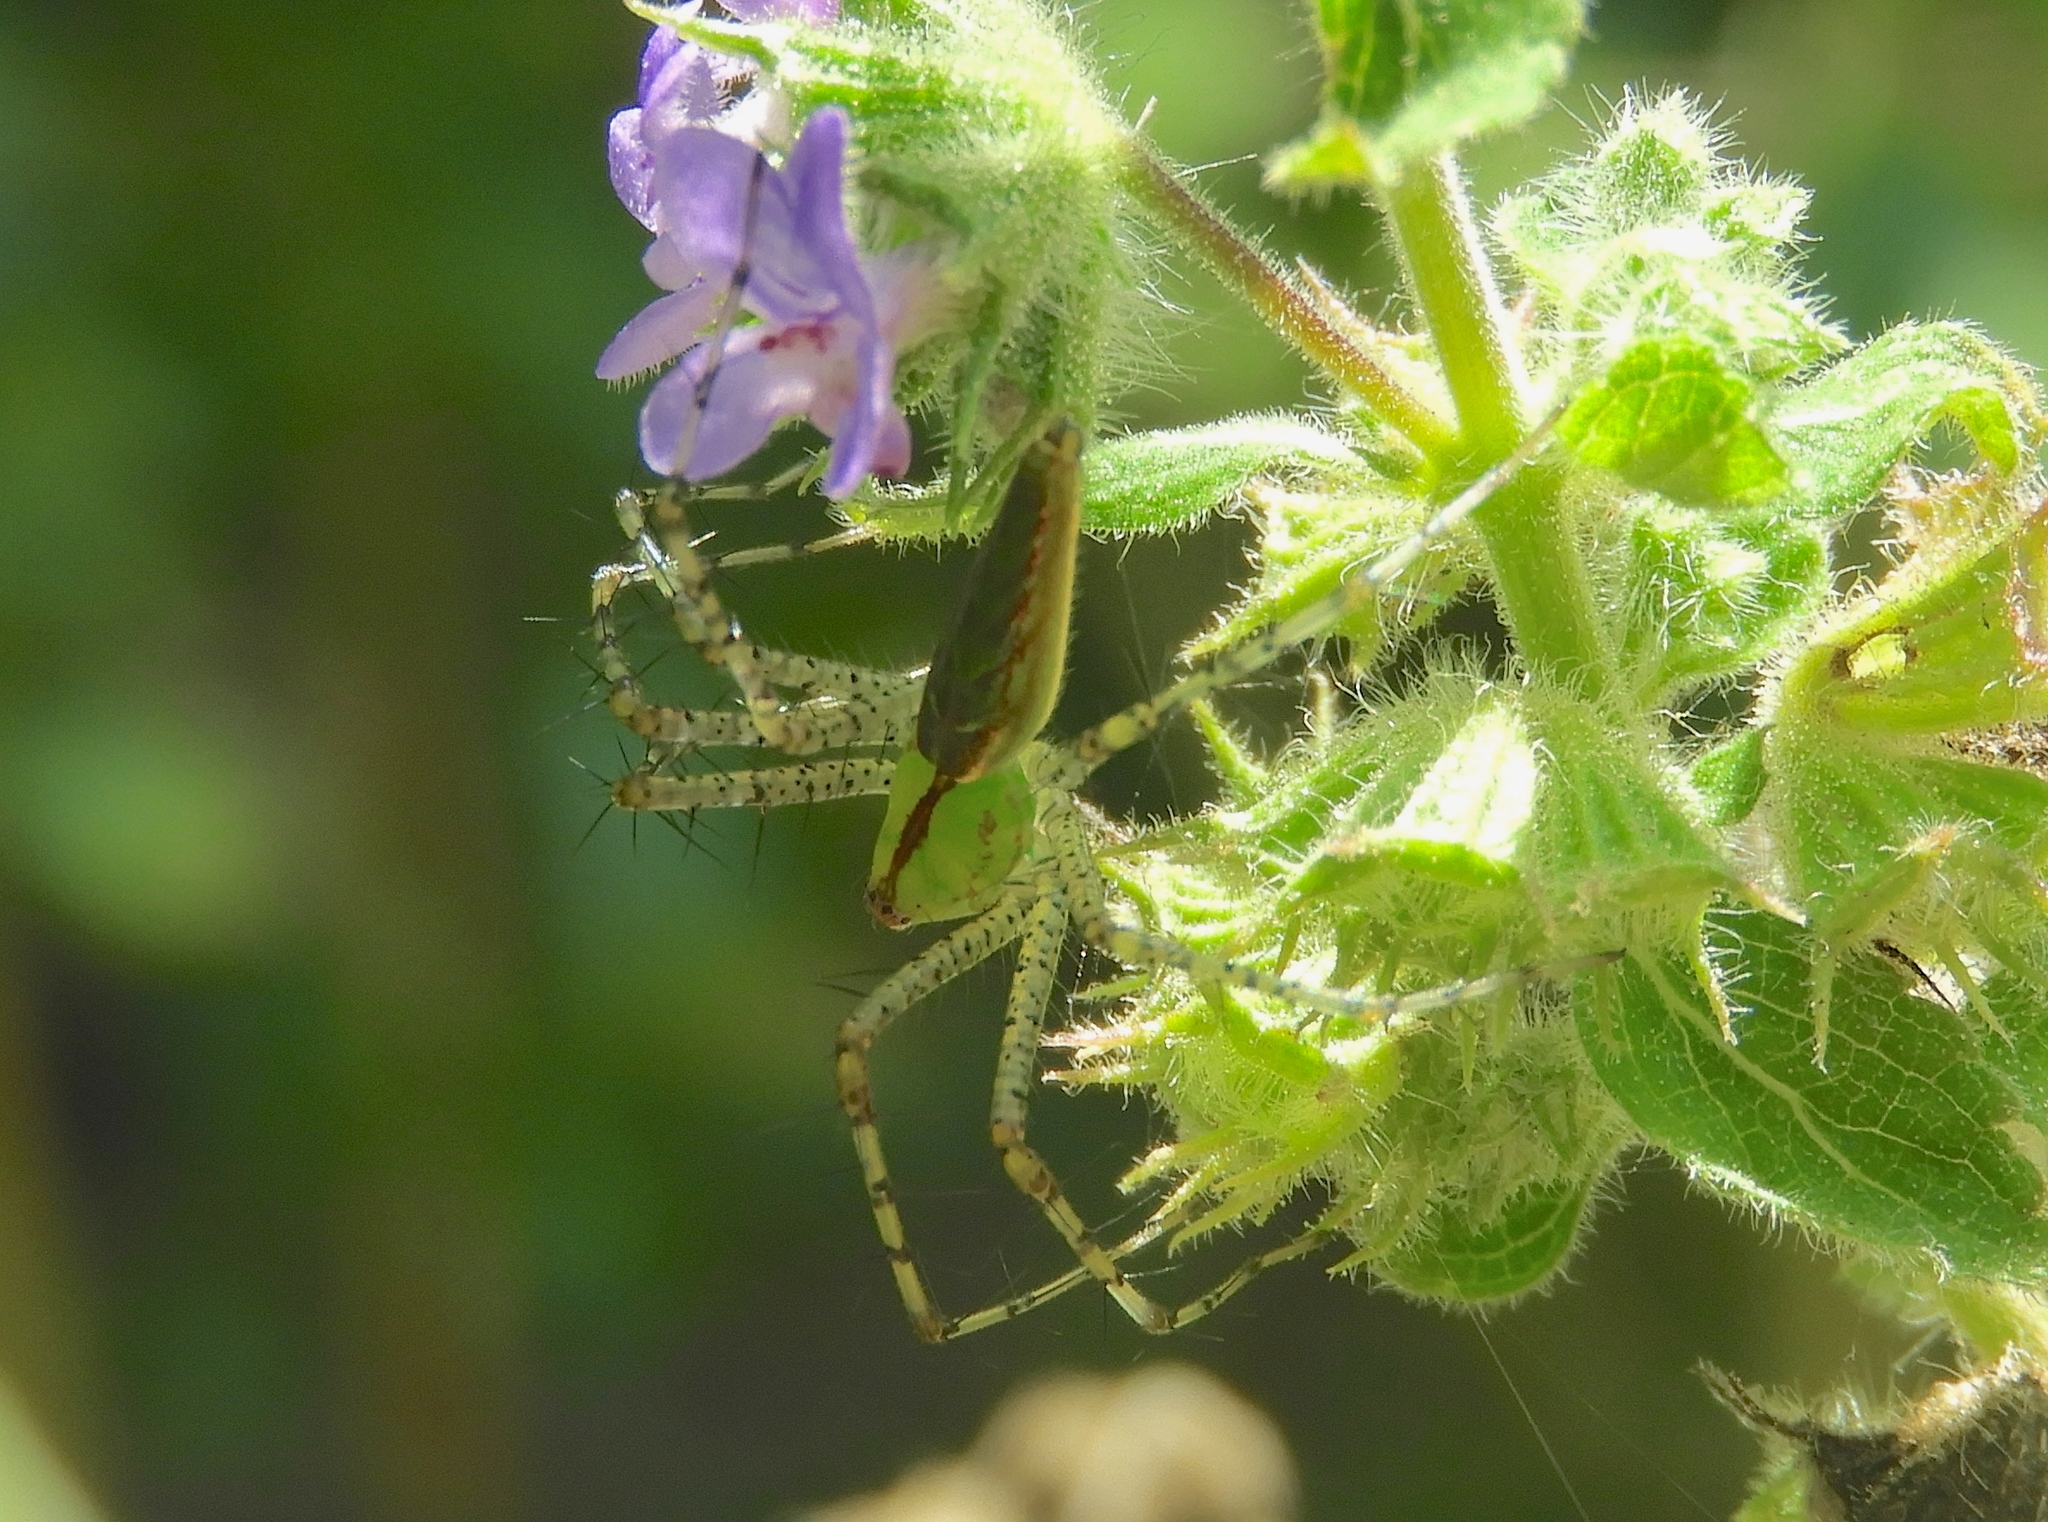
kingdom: Animalia
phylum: Arthropoda
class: Arachnida
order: Araneae
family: Oxyopidae
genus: Peucetia
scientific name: Peucetia
